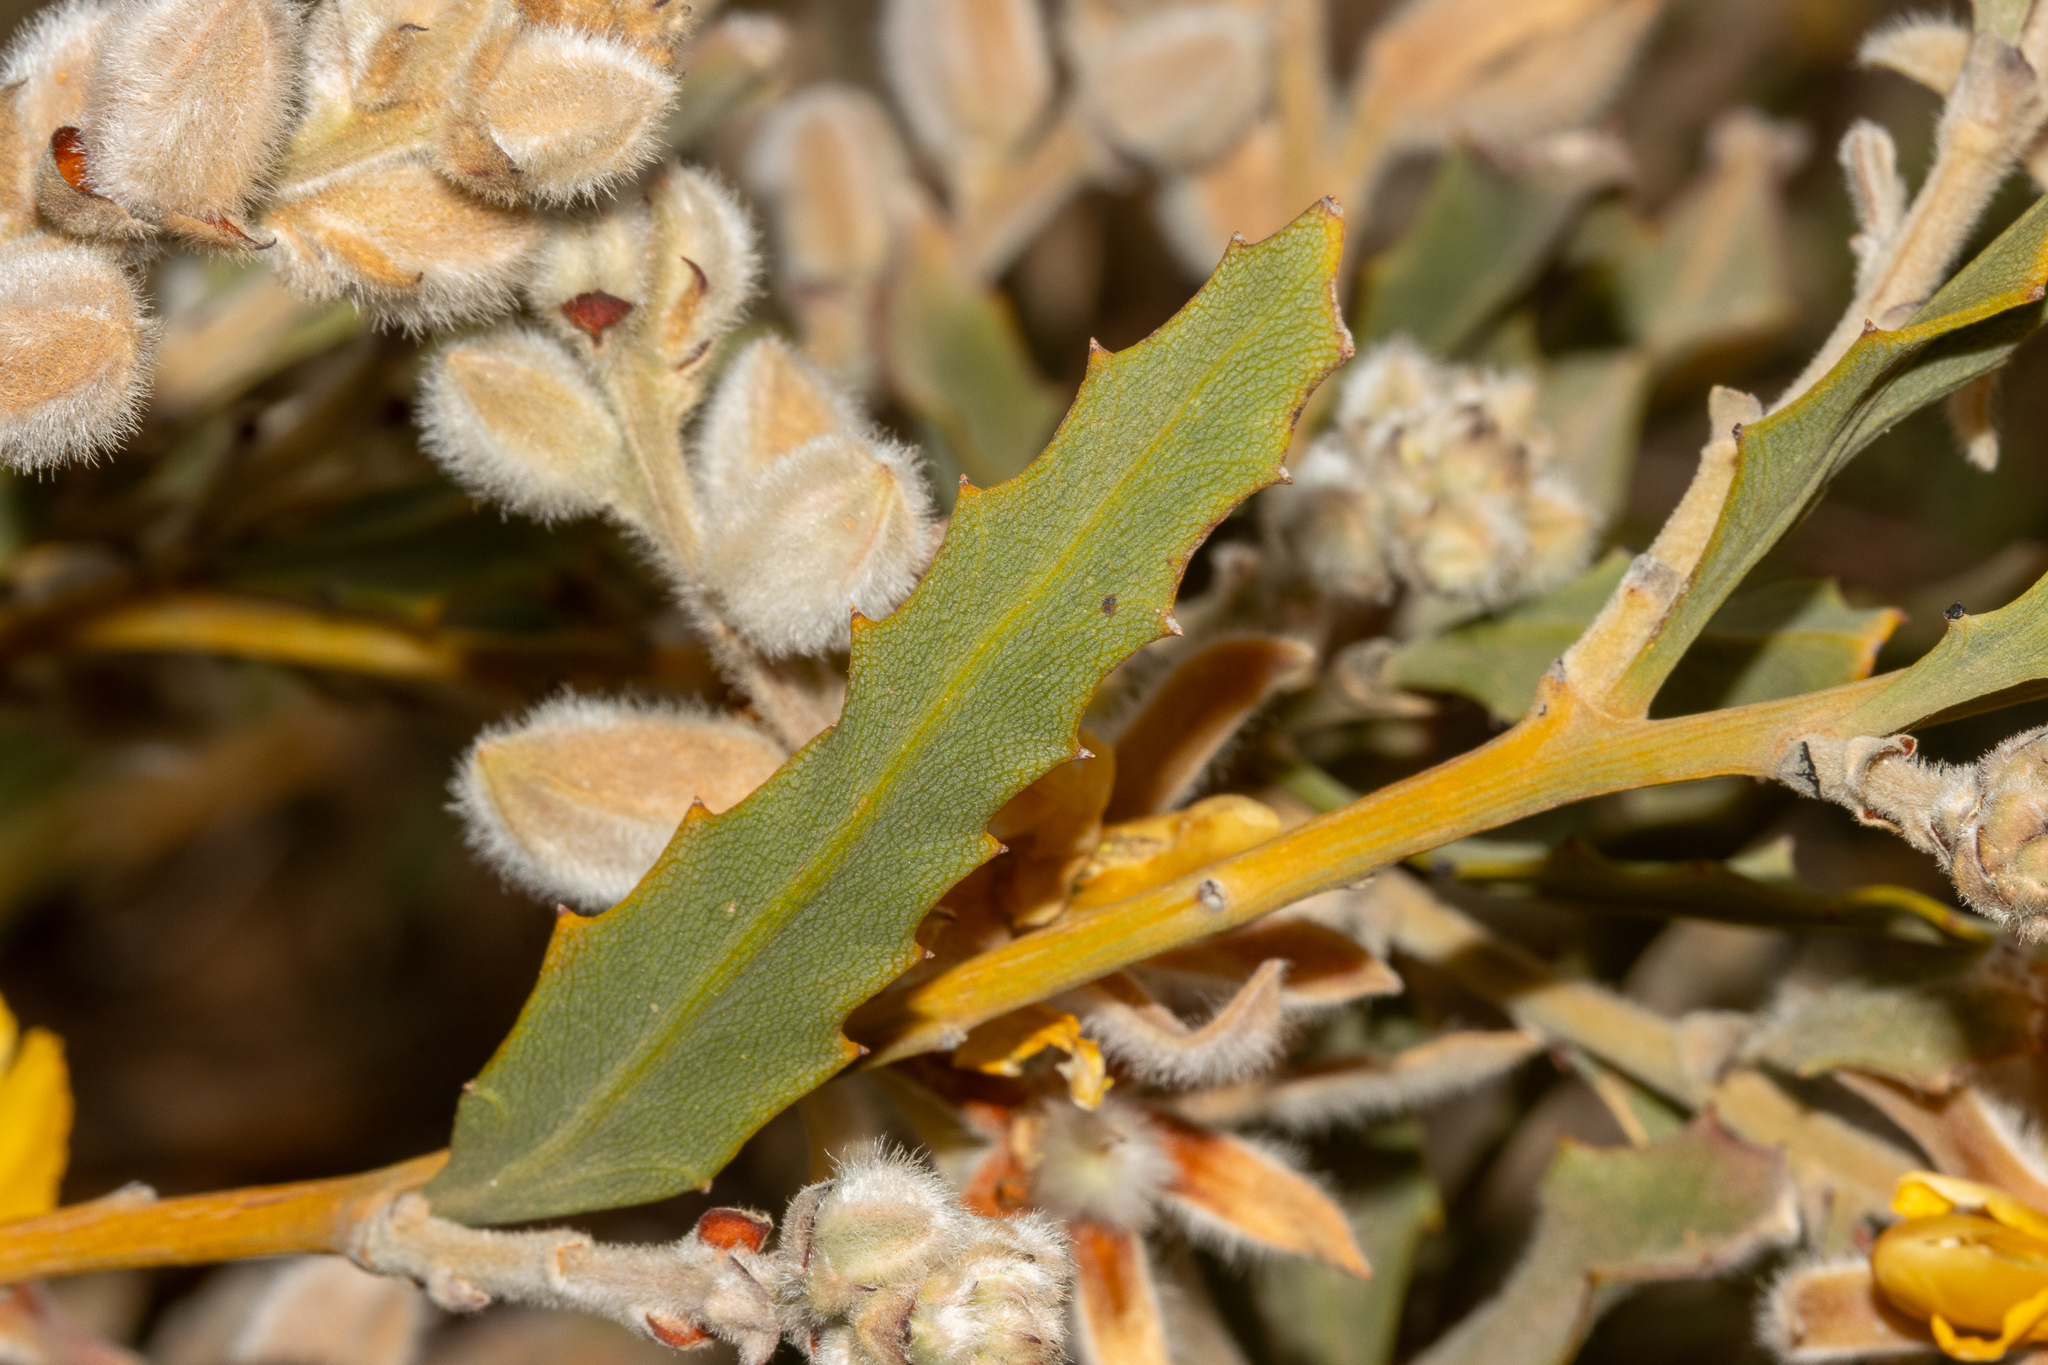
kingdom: Plantae
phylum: Tracheophyta
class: Magnoliopsida
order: Fabales
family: Fabaceae
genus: Jacksonia
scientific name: Jacksonia floribunda
